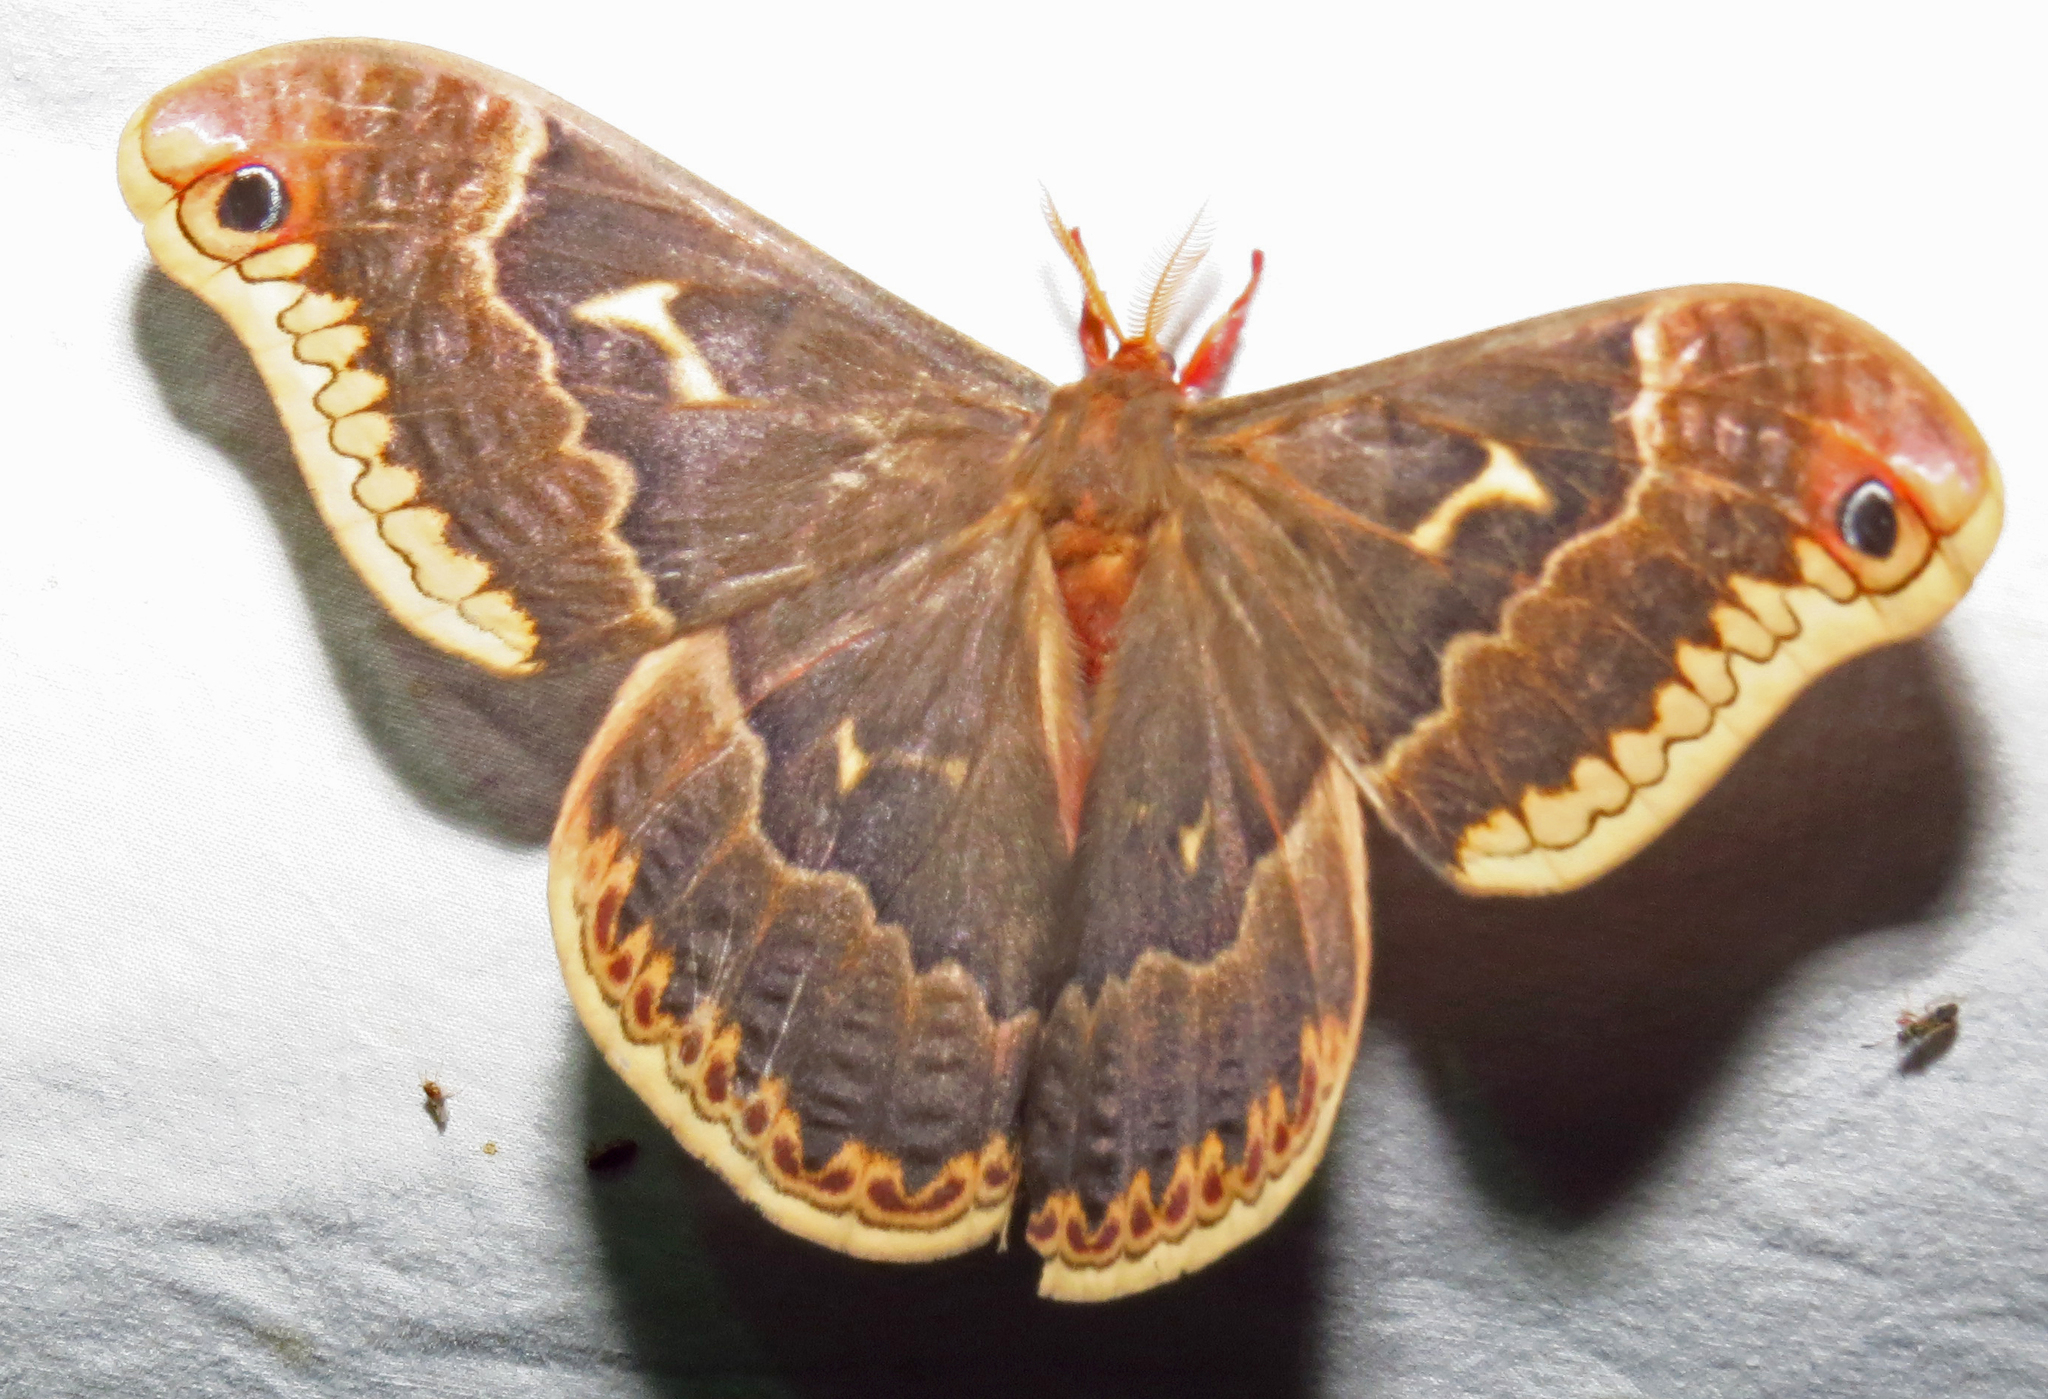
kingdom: Animalia
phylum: Arthropoda
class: Insecta
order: Lepidoptera
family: Saturniidae
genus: Callosamia
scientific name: Callosamia angulifera
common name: Tulip tree silkmoth
